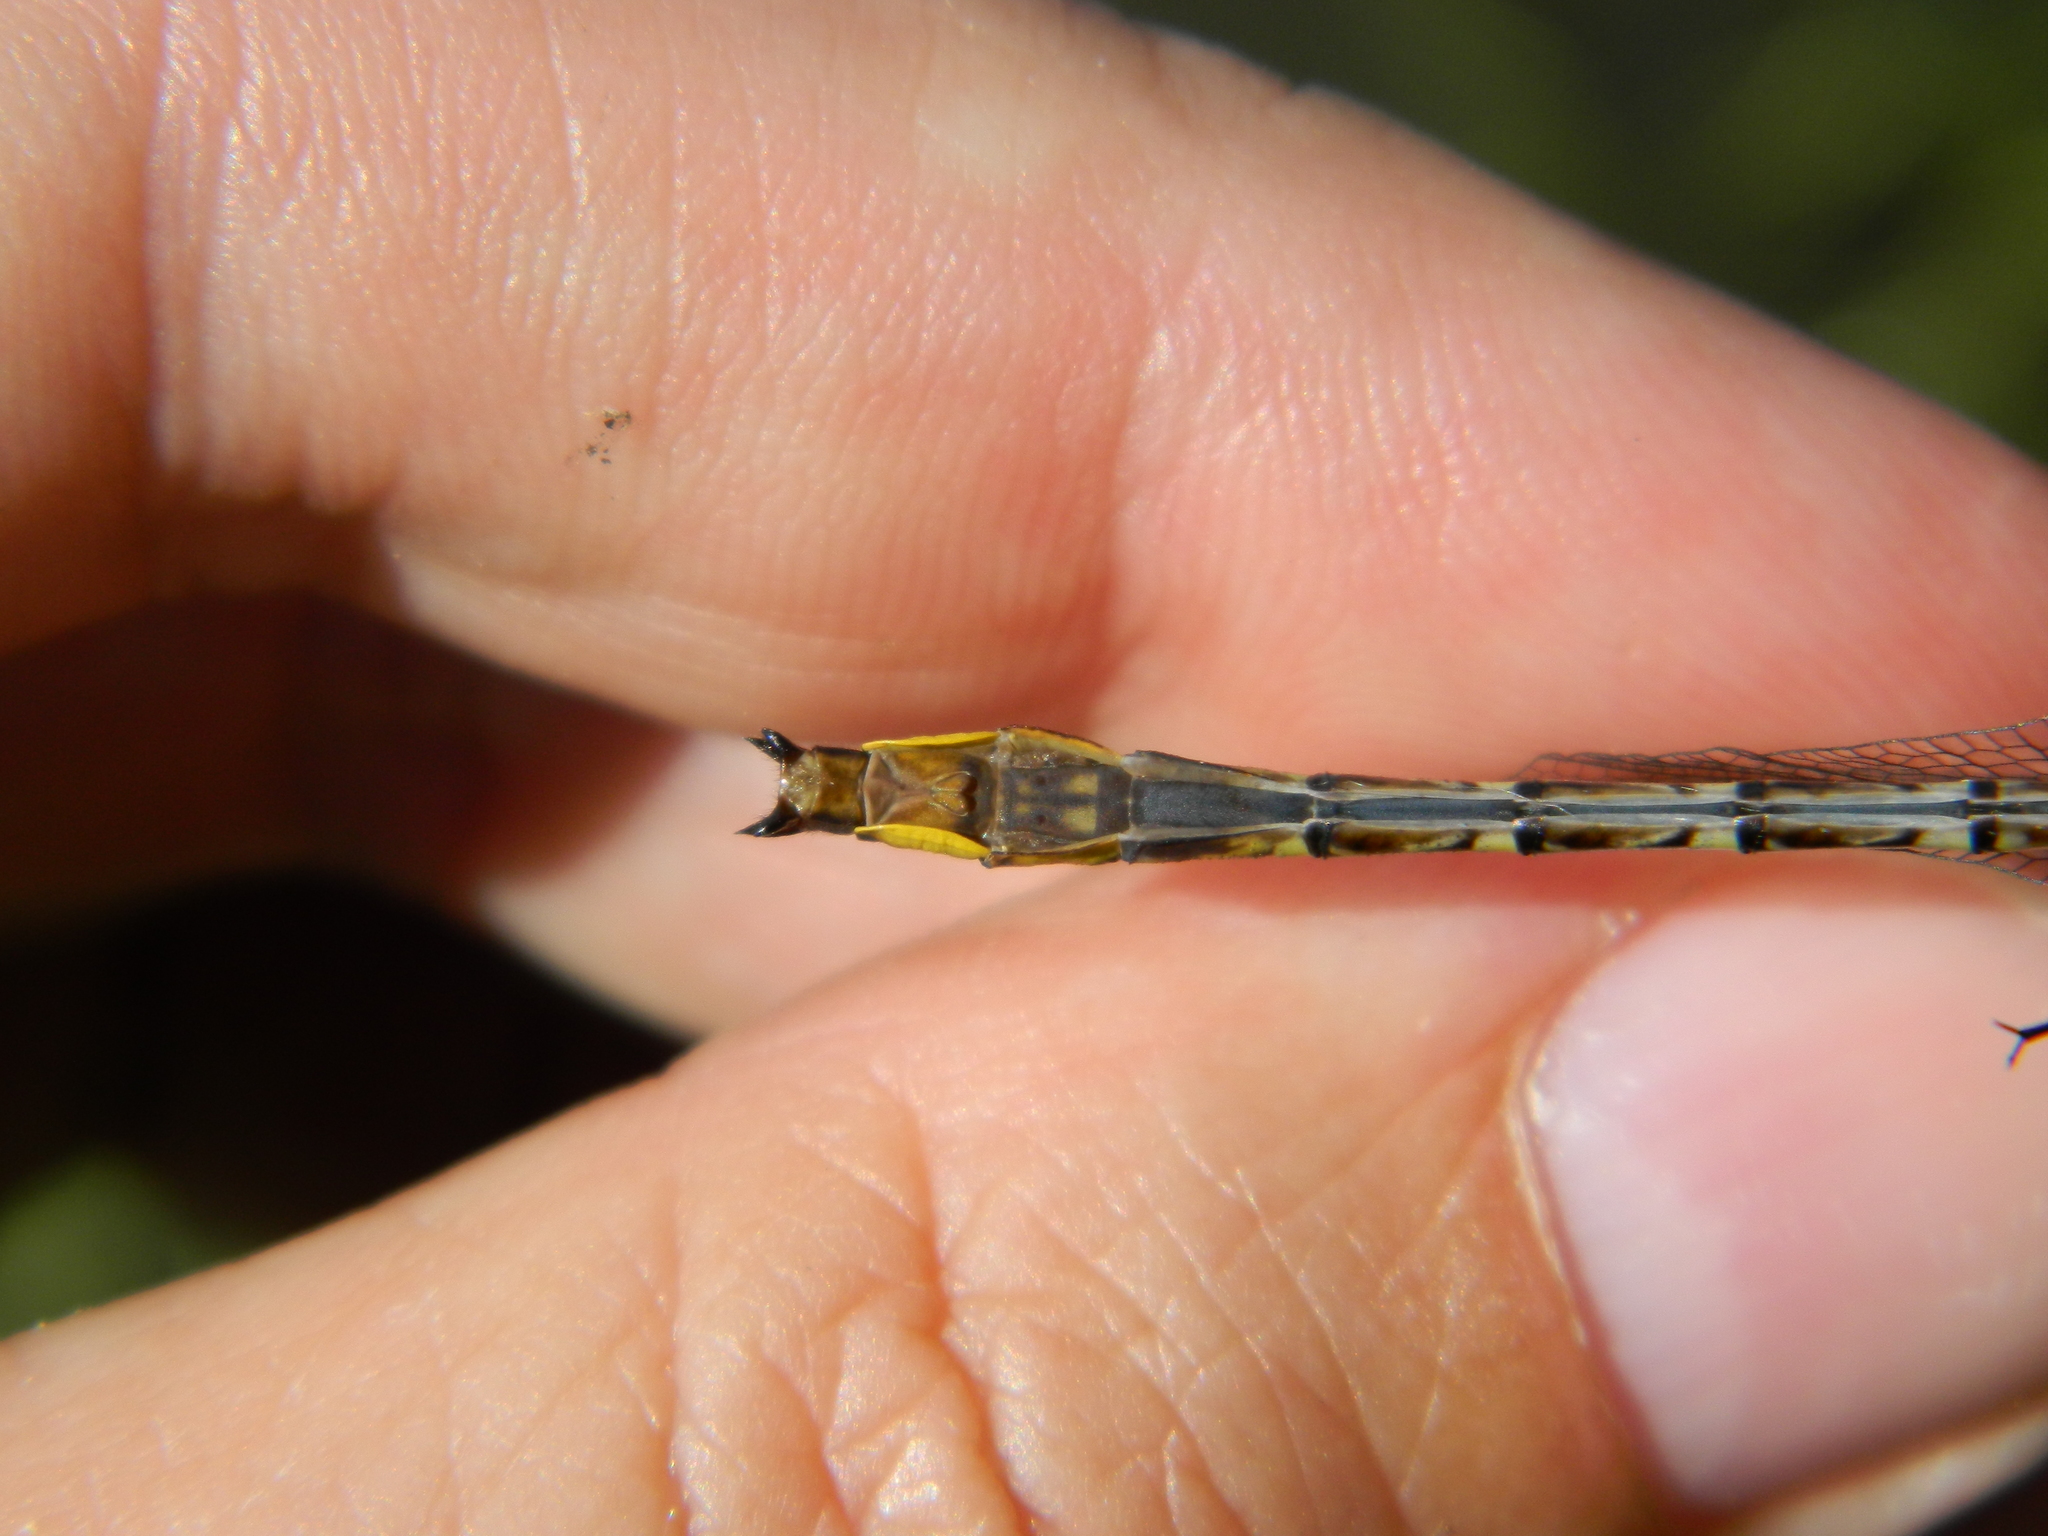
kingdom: Animalia
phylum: Arthropoda
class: Insecta
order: Odonata
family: Gomphidae
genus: Phanogomphus
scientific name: Phanogomphus exilis
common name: Lancet clubtail
